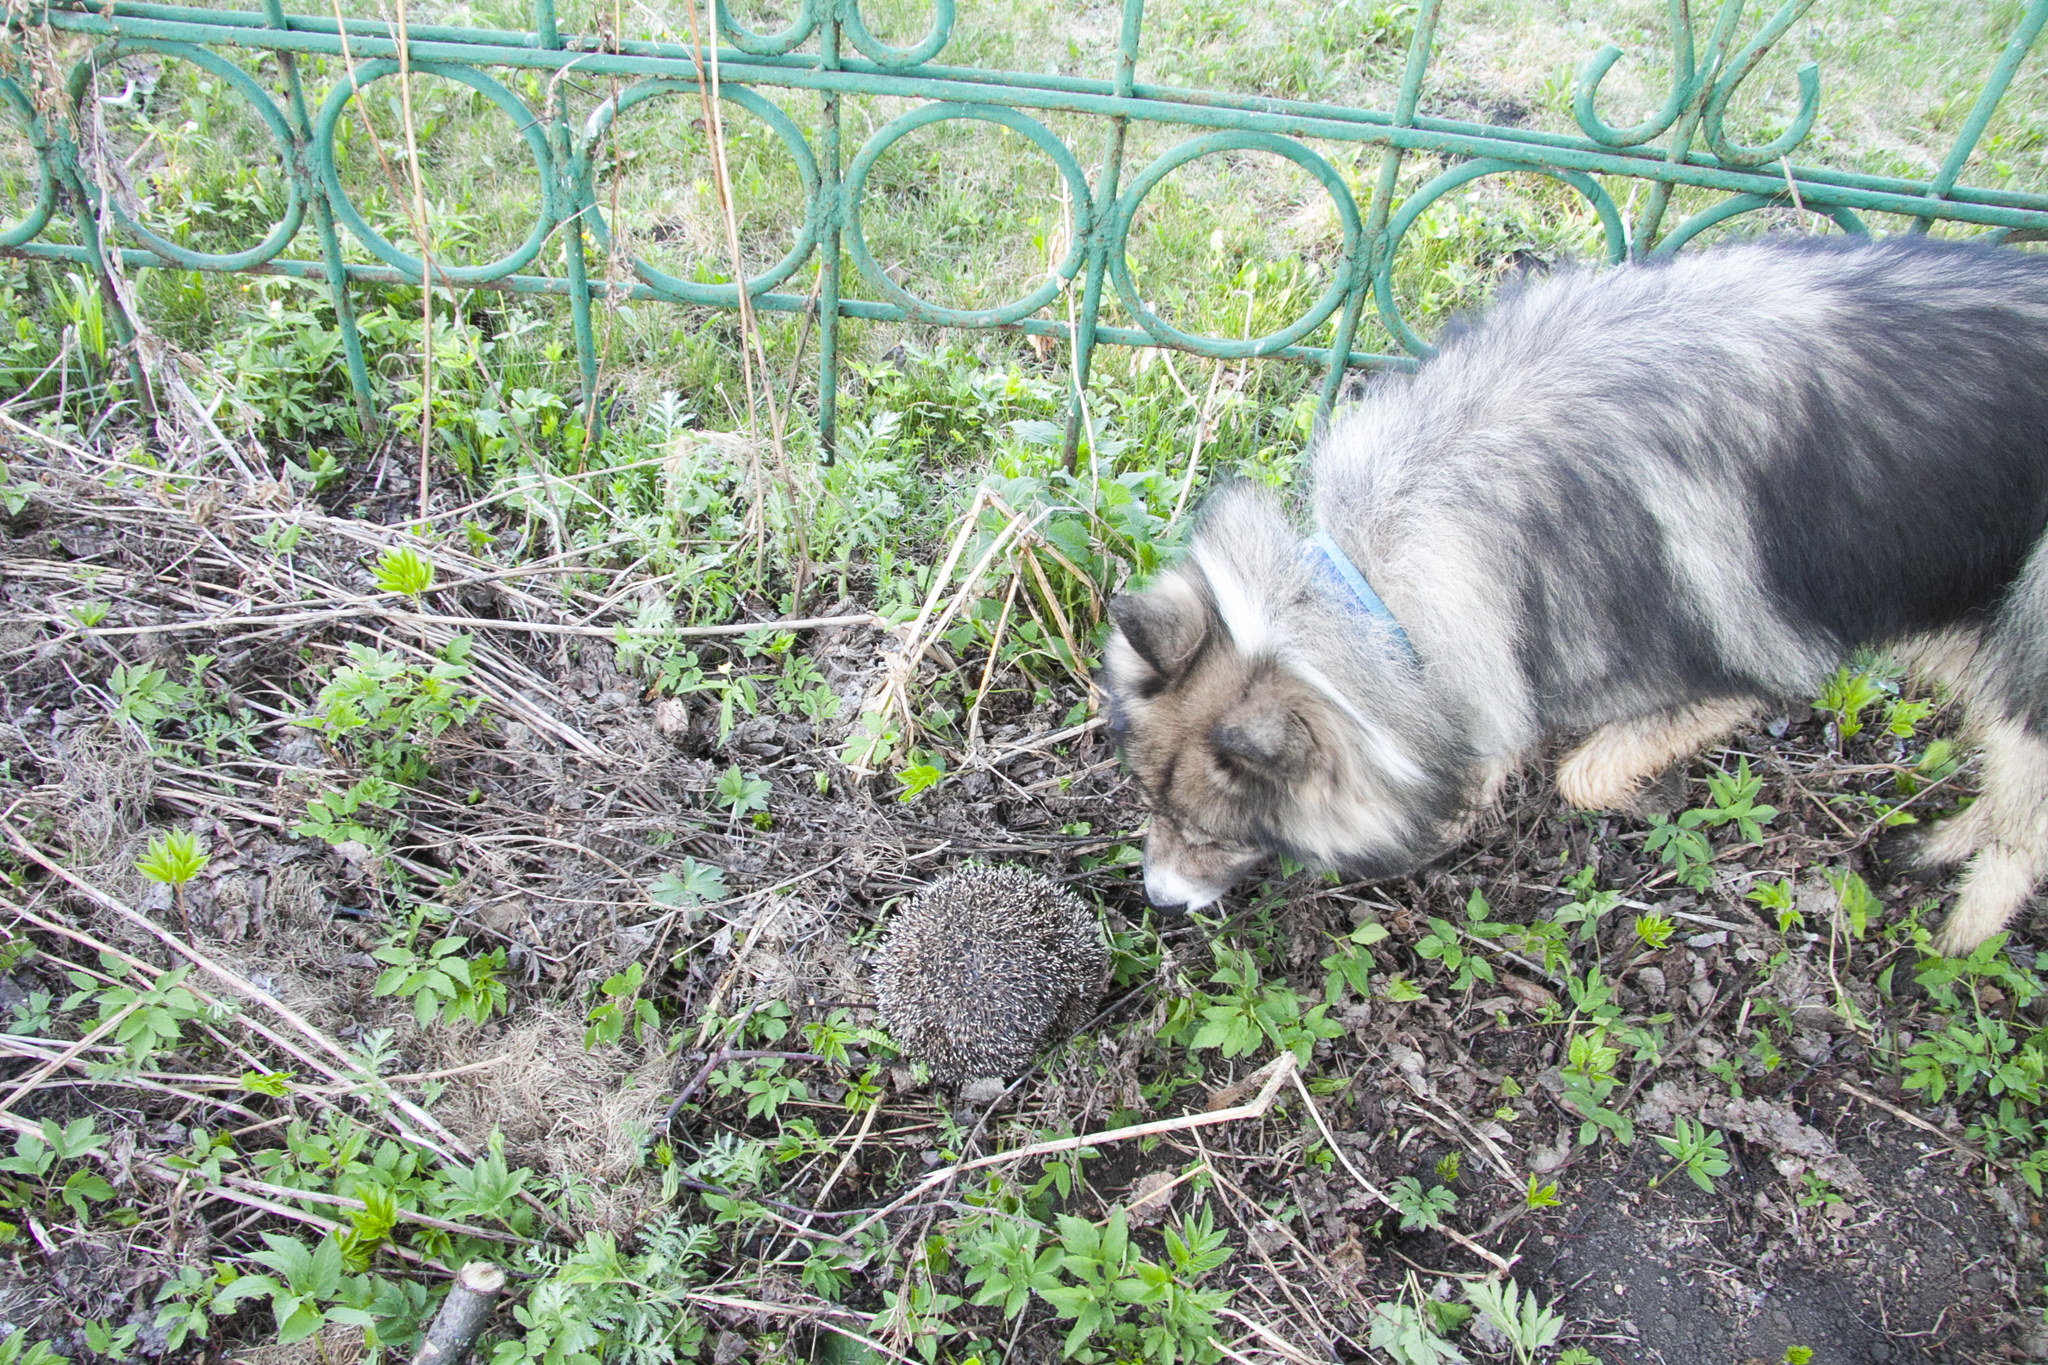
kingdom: Animalia
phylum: Chordata
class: Mammalia
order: Erinaceomorpha
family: Erinaceidae
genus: Erinaceus
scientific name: Erinaceus roumanicus
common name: Northern white-breasted hedgehog
